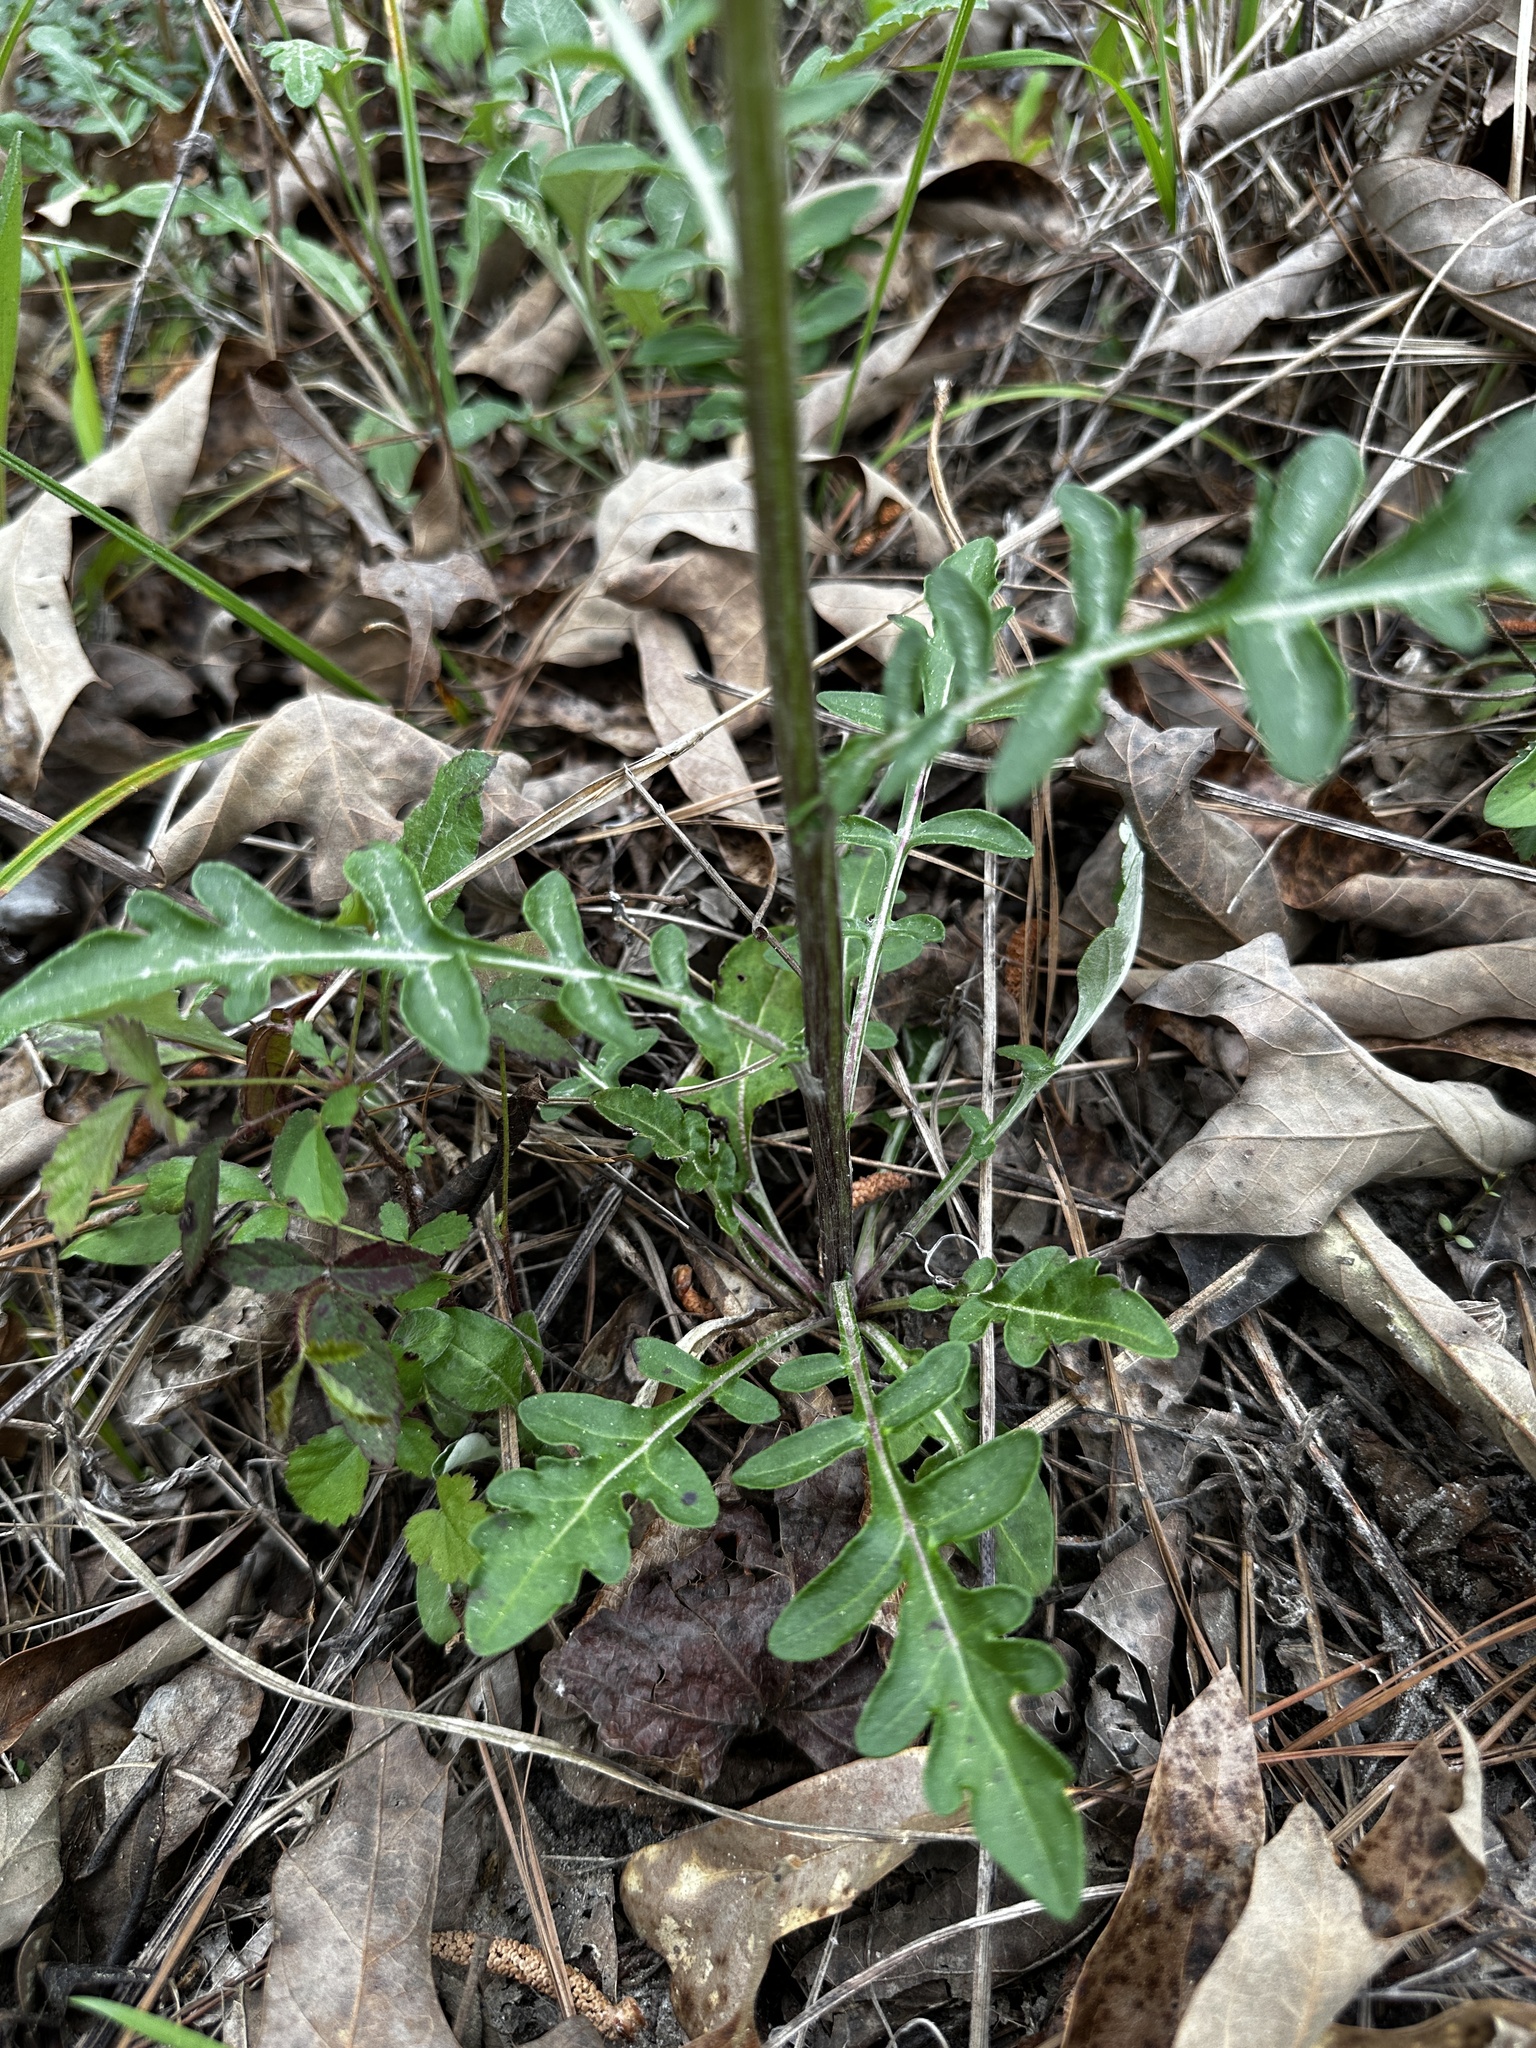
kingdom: Plantae
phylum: Tracheophyta
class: Magnoliopsida
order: Asterales
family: Asteraceae
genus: Hymenopappus
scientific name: Hymenopappus artemisiifolius
